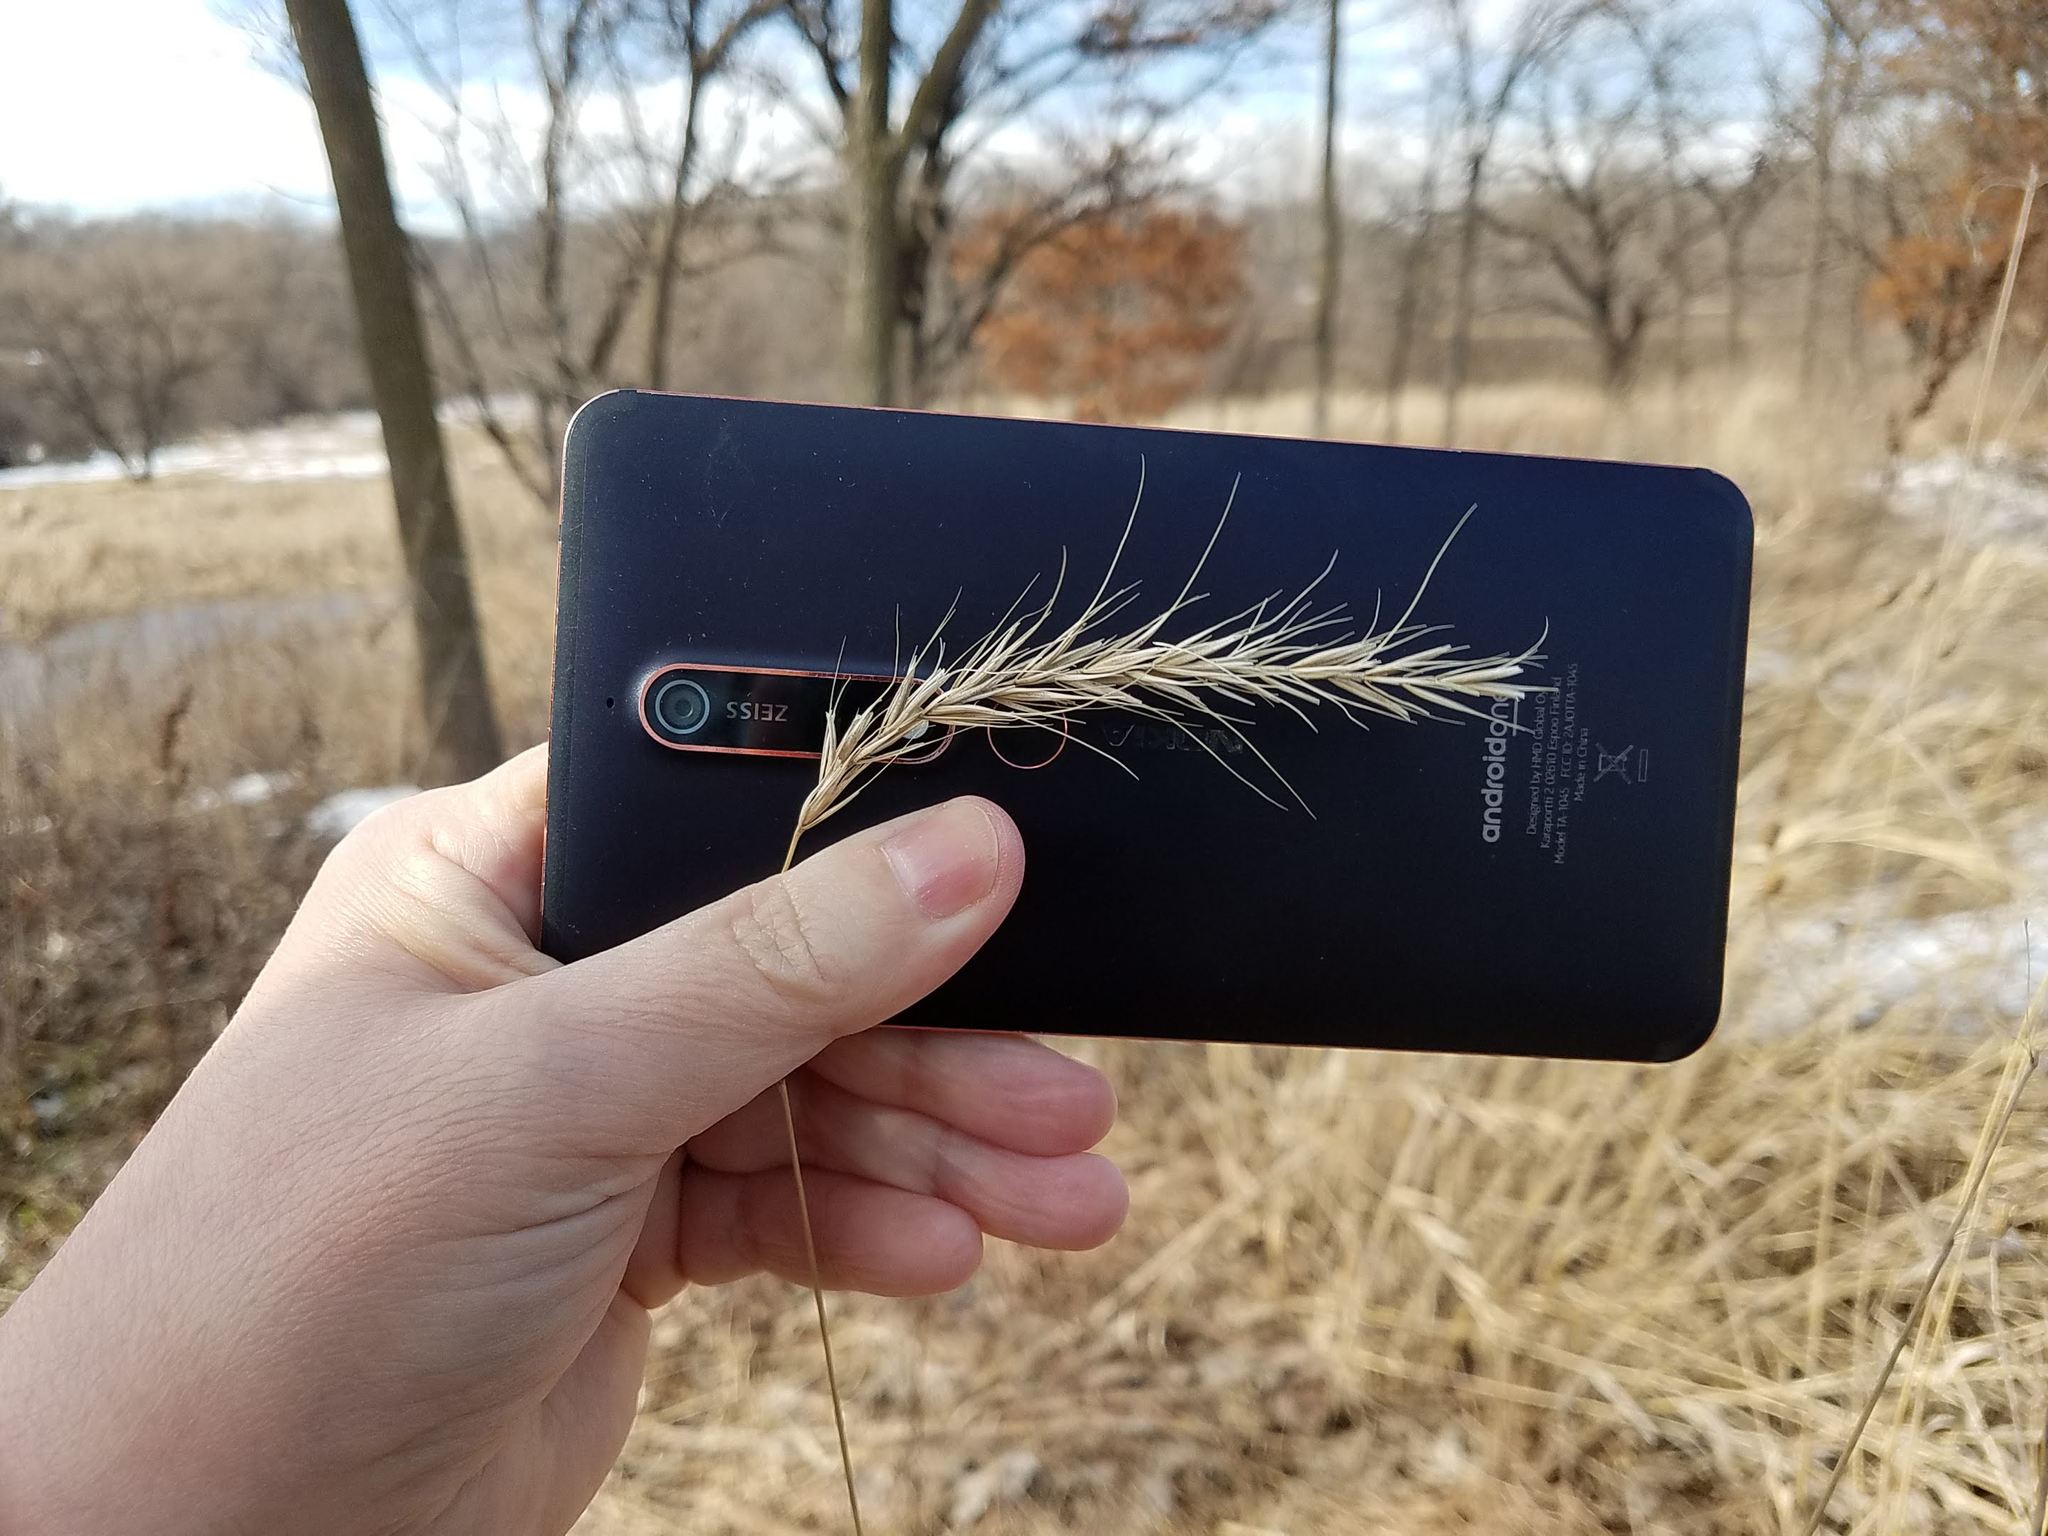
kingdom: Plantae
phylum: Tracheophyta
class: Liliopsida
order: Poales
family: Poaceae
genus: Elymus
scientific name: Elymus canadensis
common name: Canada wild rye
